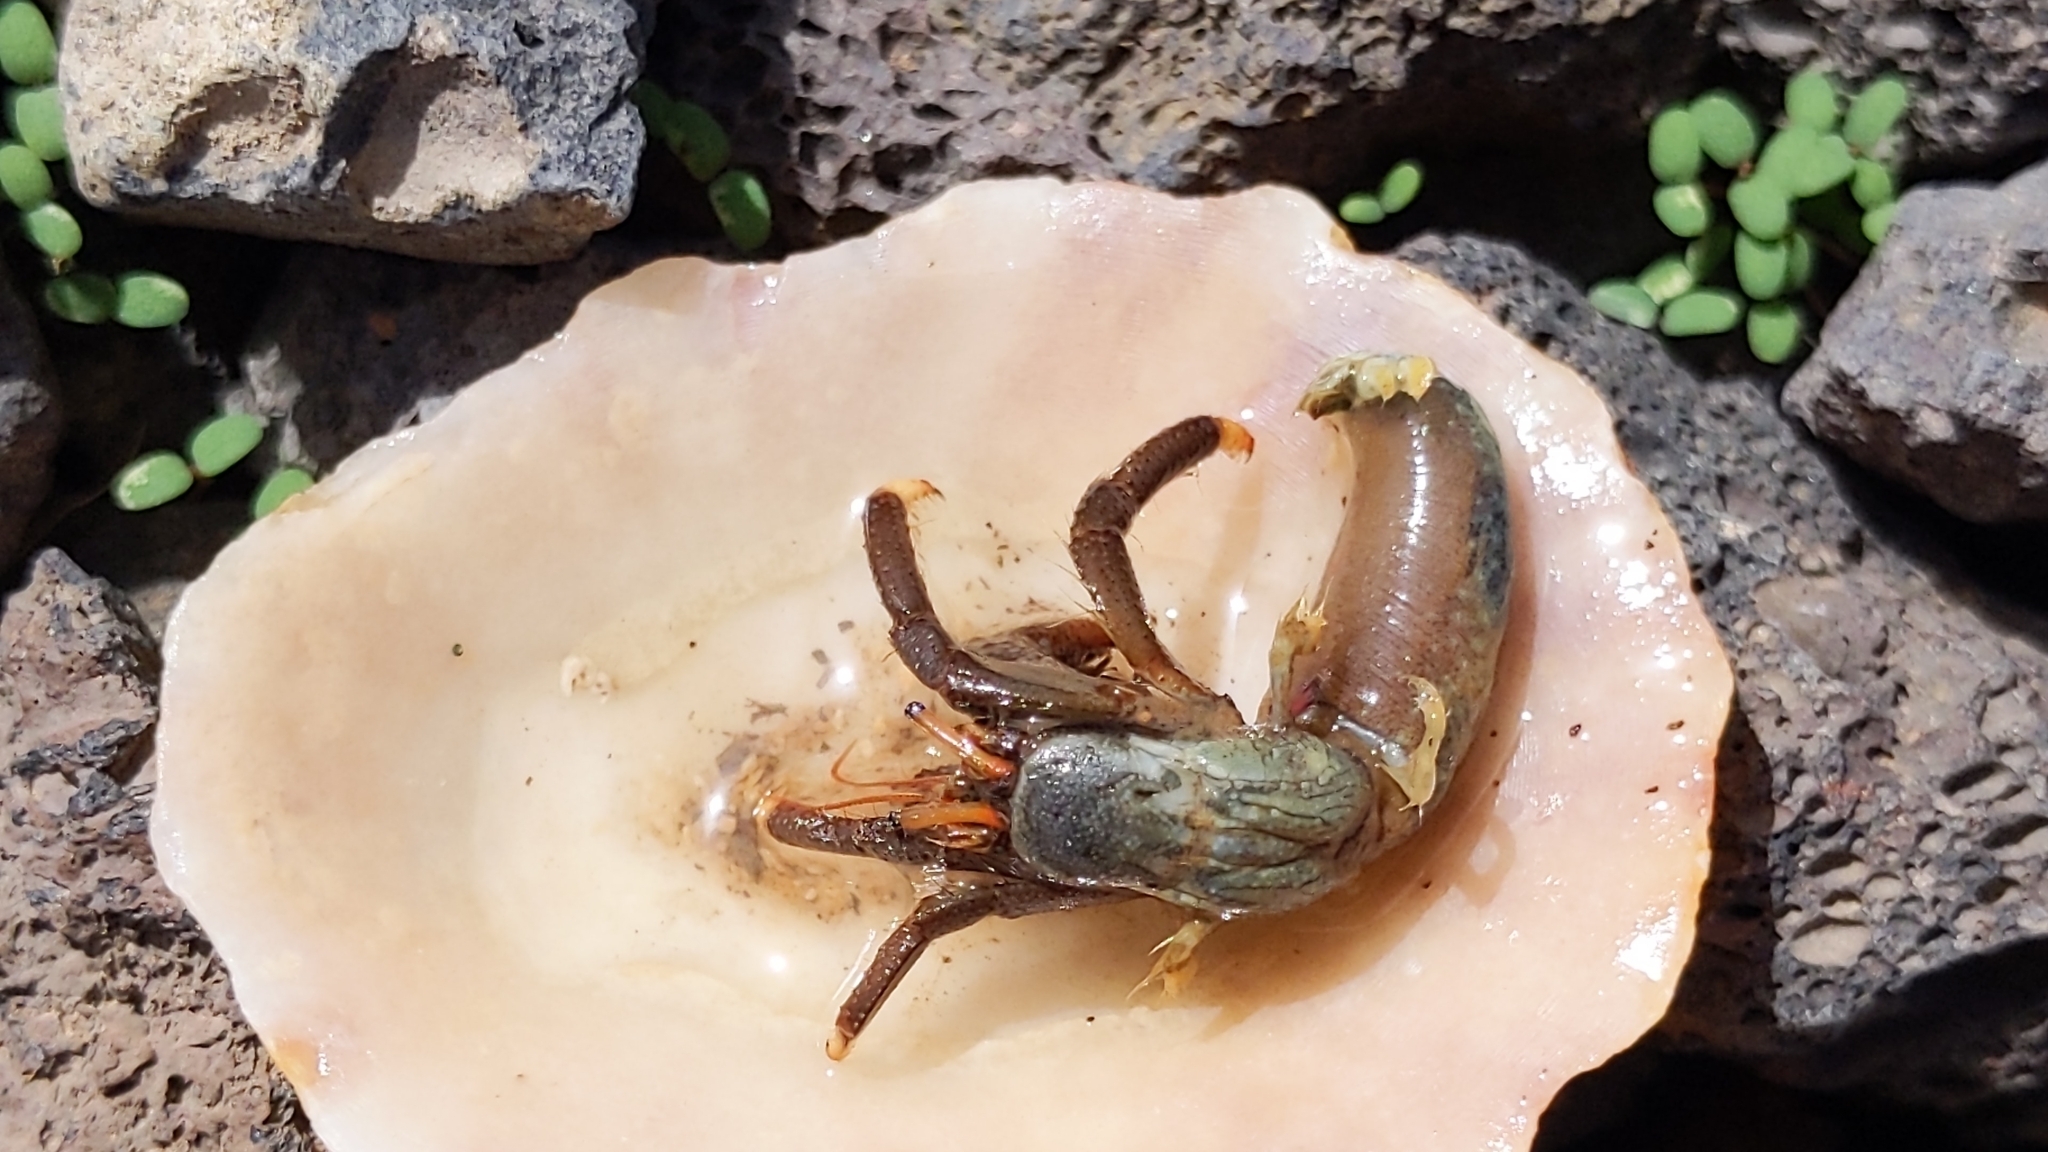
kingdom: Animalia
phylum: Arthropoda
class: Malacostraca
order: Decapoda
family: Diogenidae
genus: Clibanarius
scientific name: Clibanarius aequabilis
